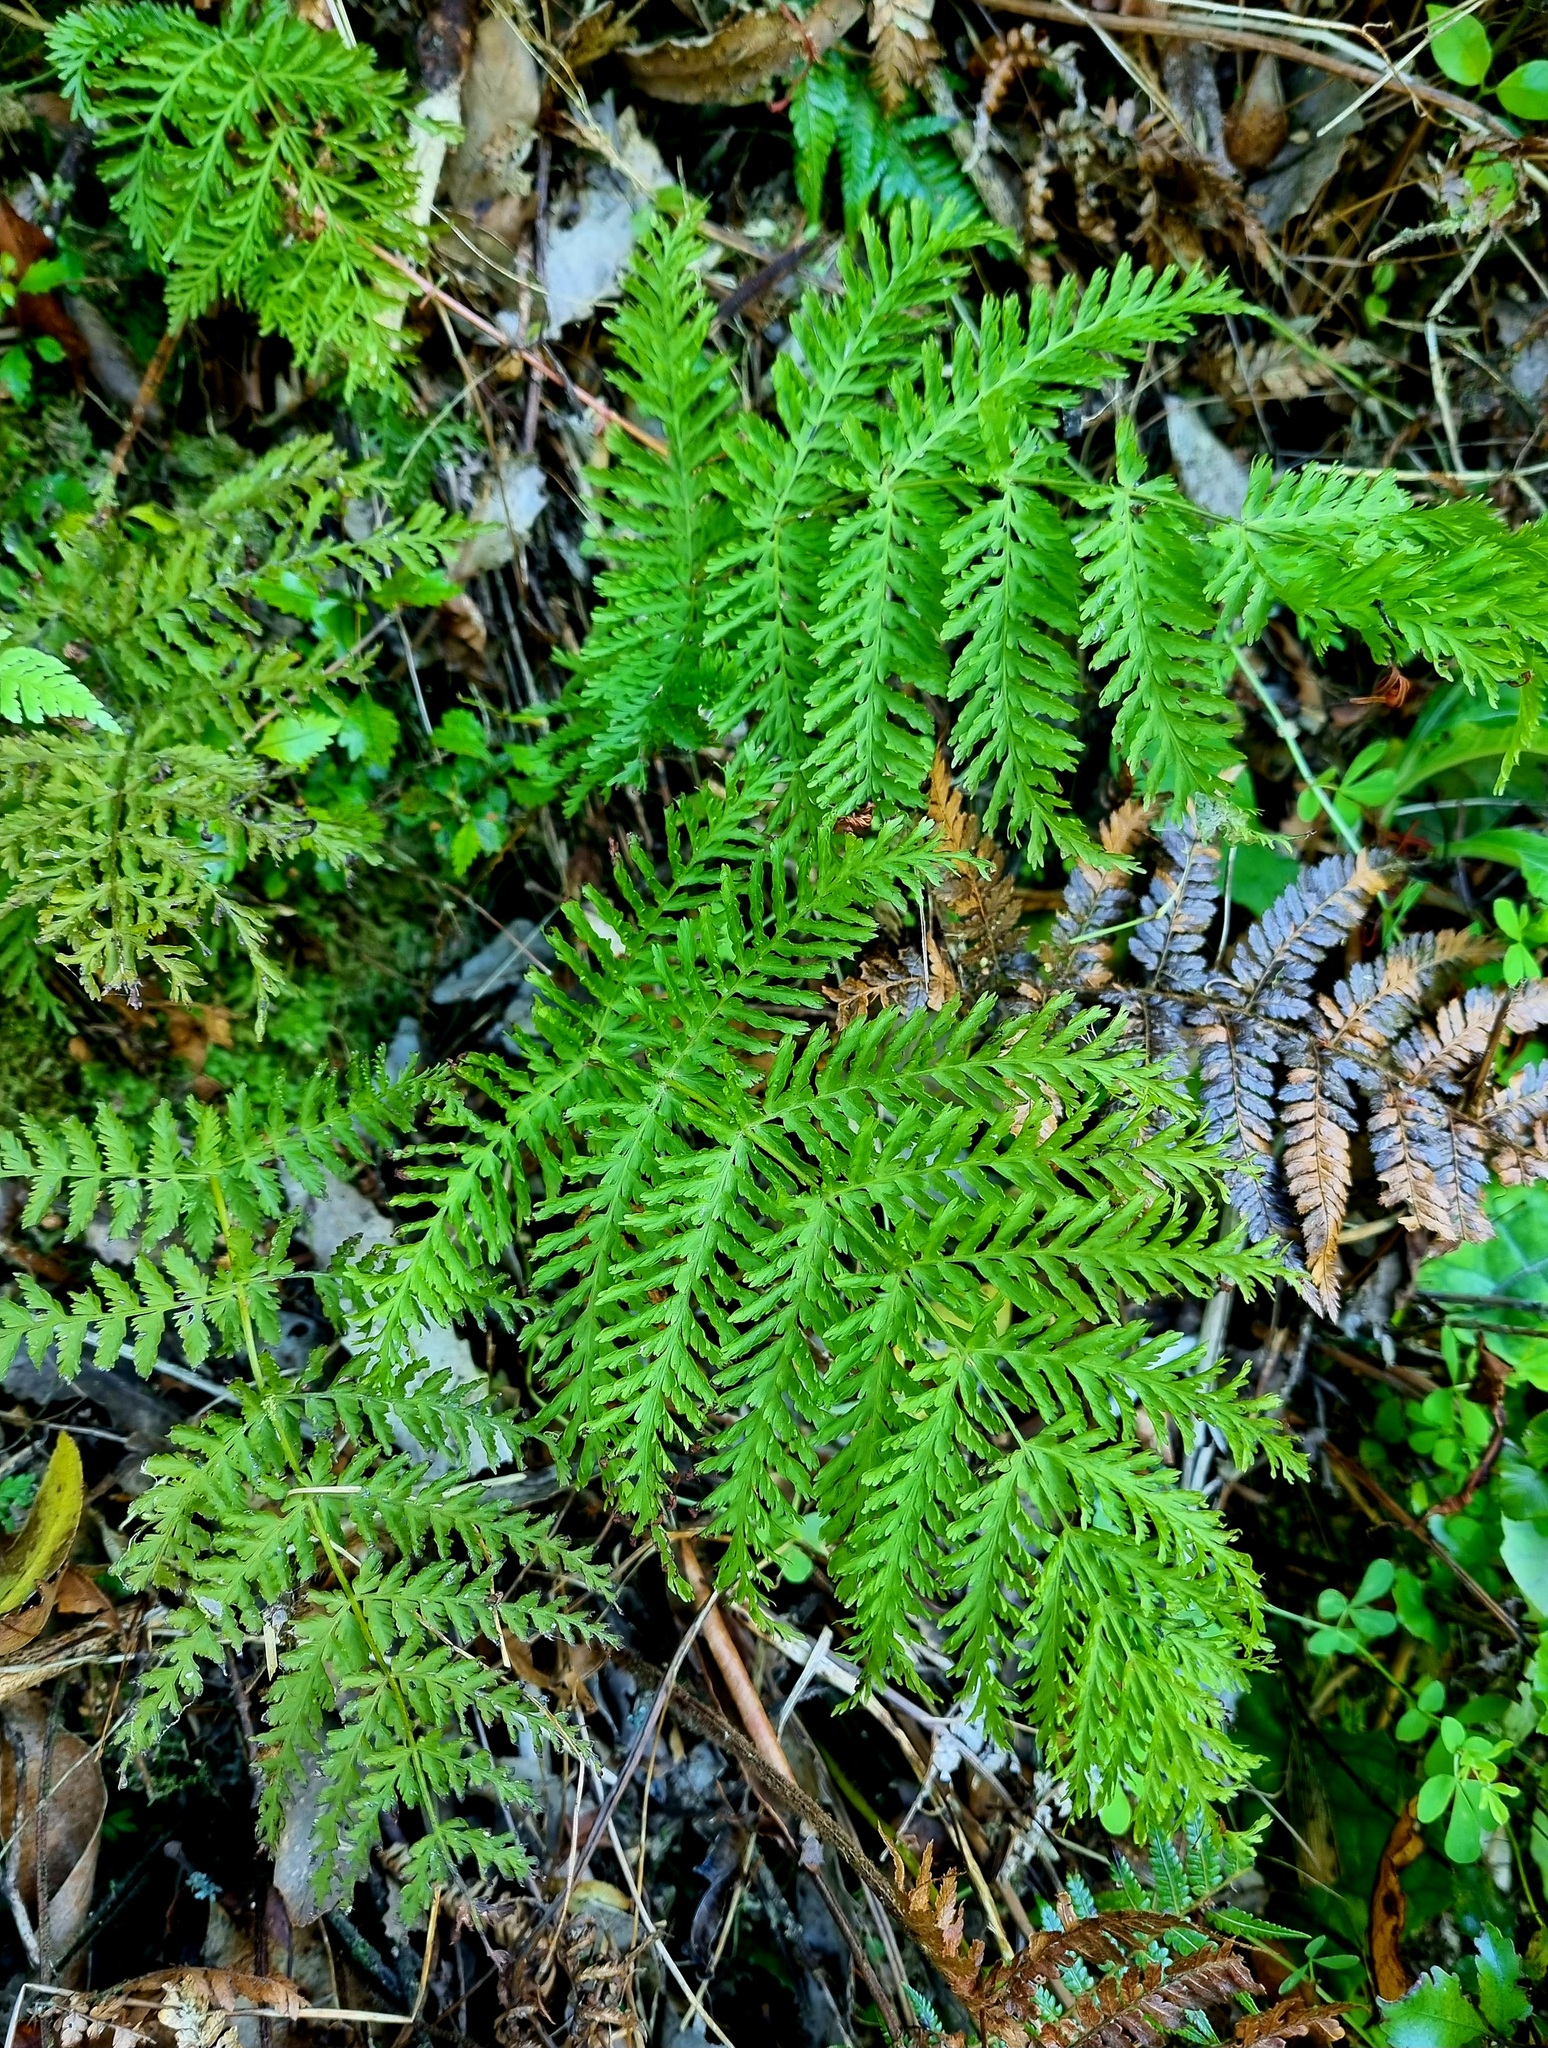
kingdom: Plantae
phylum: Tracheophyta
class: Polypodiopsida
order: Osmundales
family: Osmundaceae
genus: Leptopteris
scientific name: Leptopteris hymenophylloides
